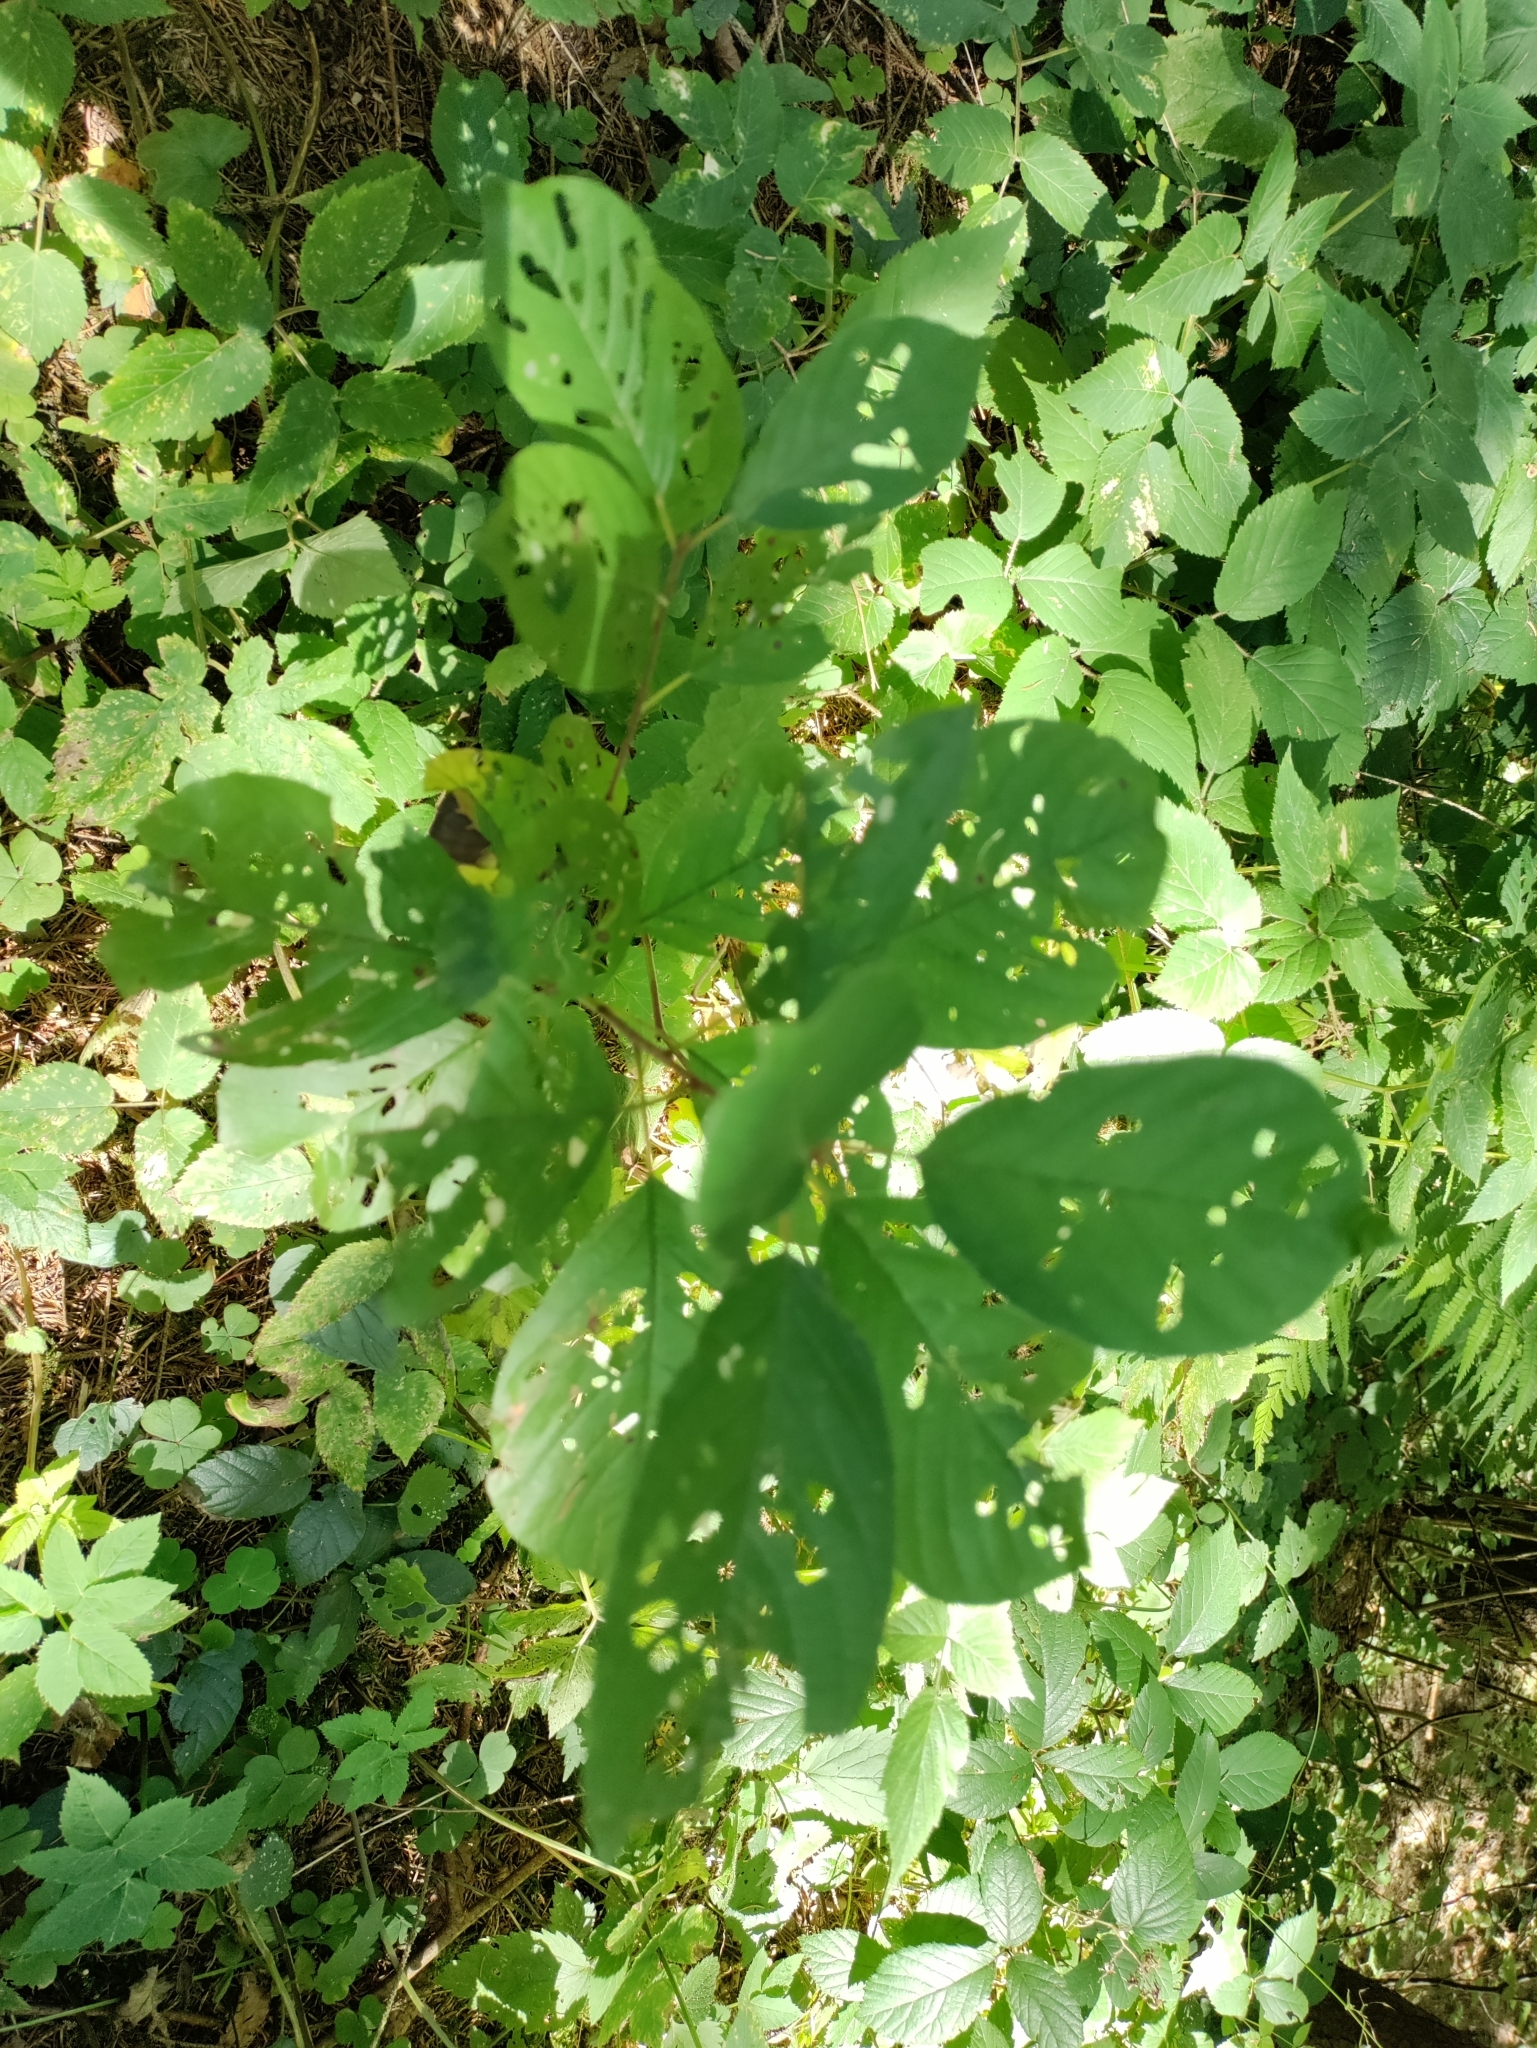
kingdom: Plantae
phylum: Tracheophyta
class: Magnoliopsida
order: Rosales
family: Rhamnaceae
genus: Frangula
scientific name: Frangula alnus
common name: Alder buckthorn
